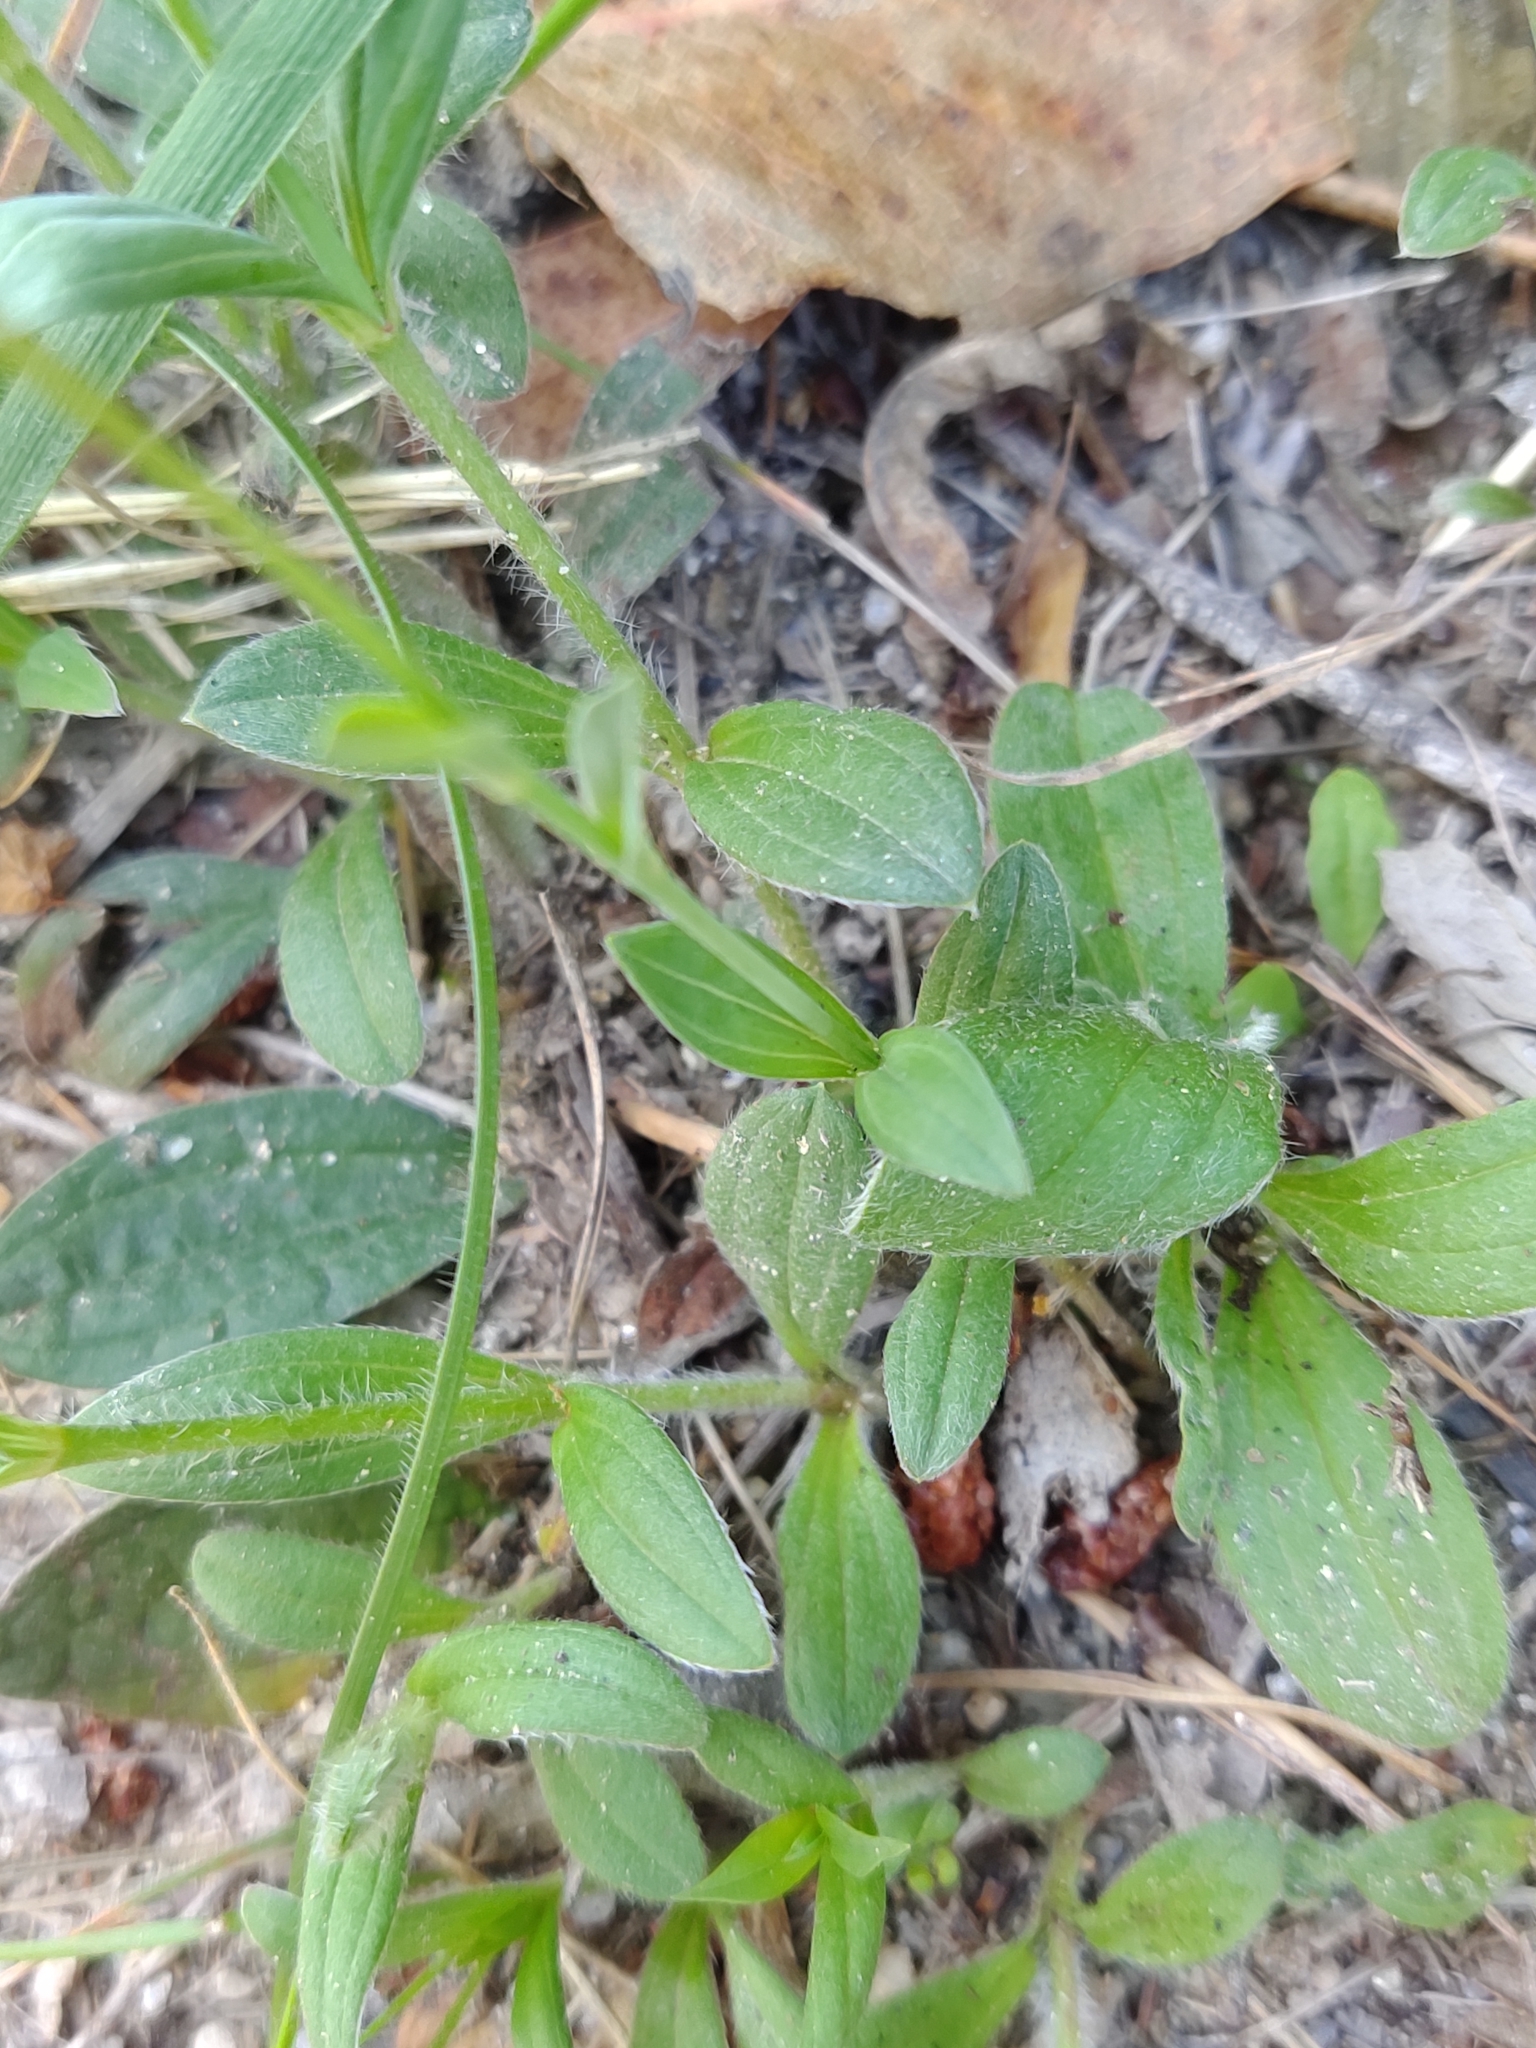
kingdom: Plantae
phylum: Tracheophyta
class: Magnoliopsida
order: Malvales
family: Cistaceae
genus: Tuberaria
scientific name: Tuberaria lignosa
